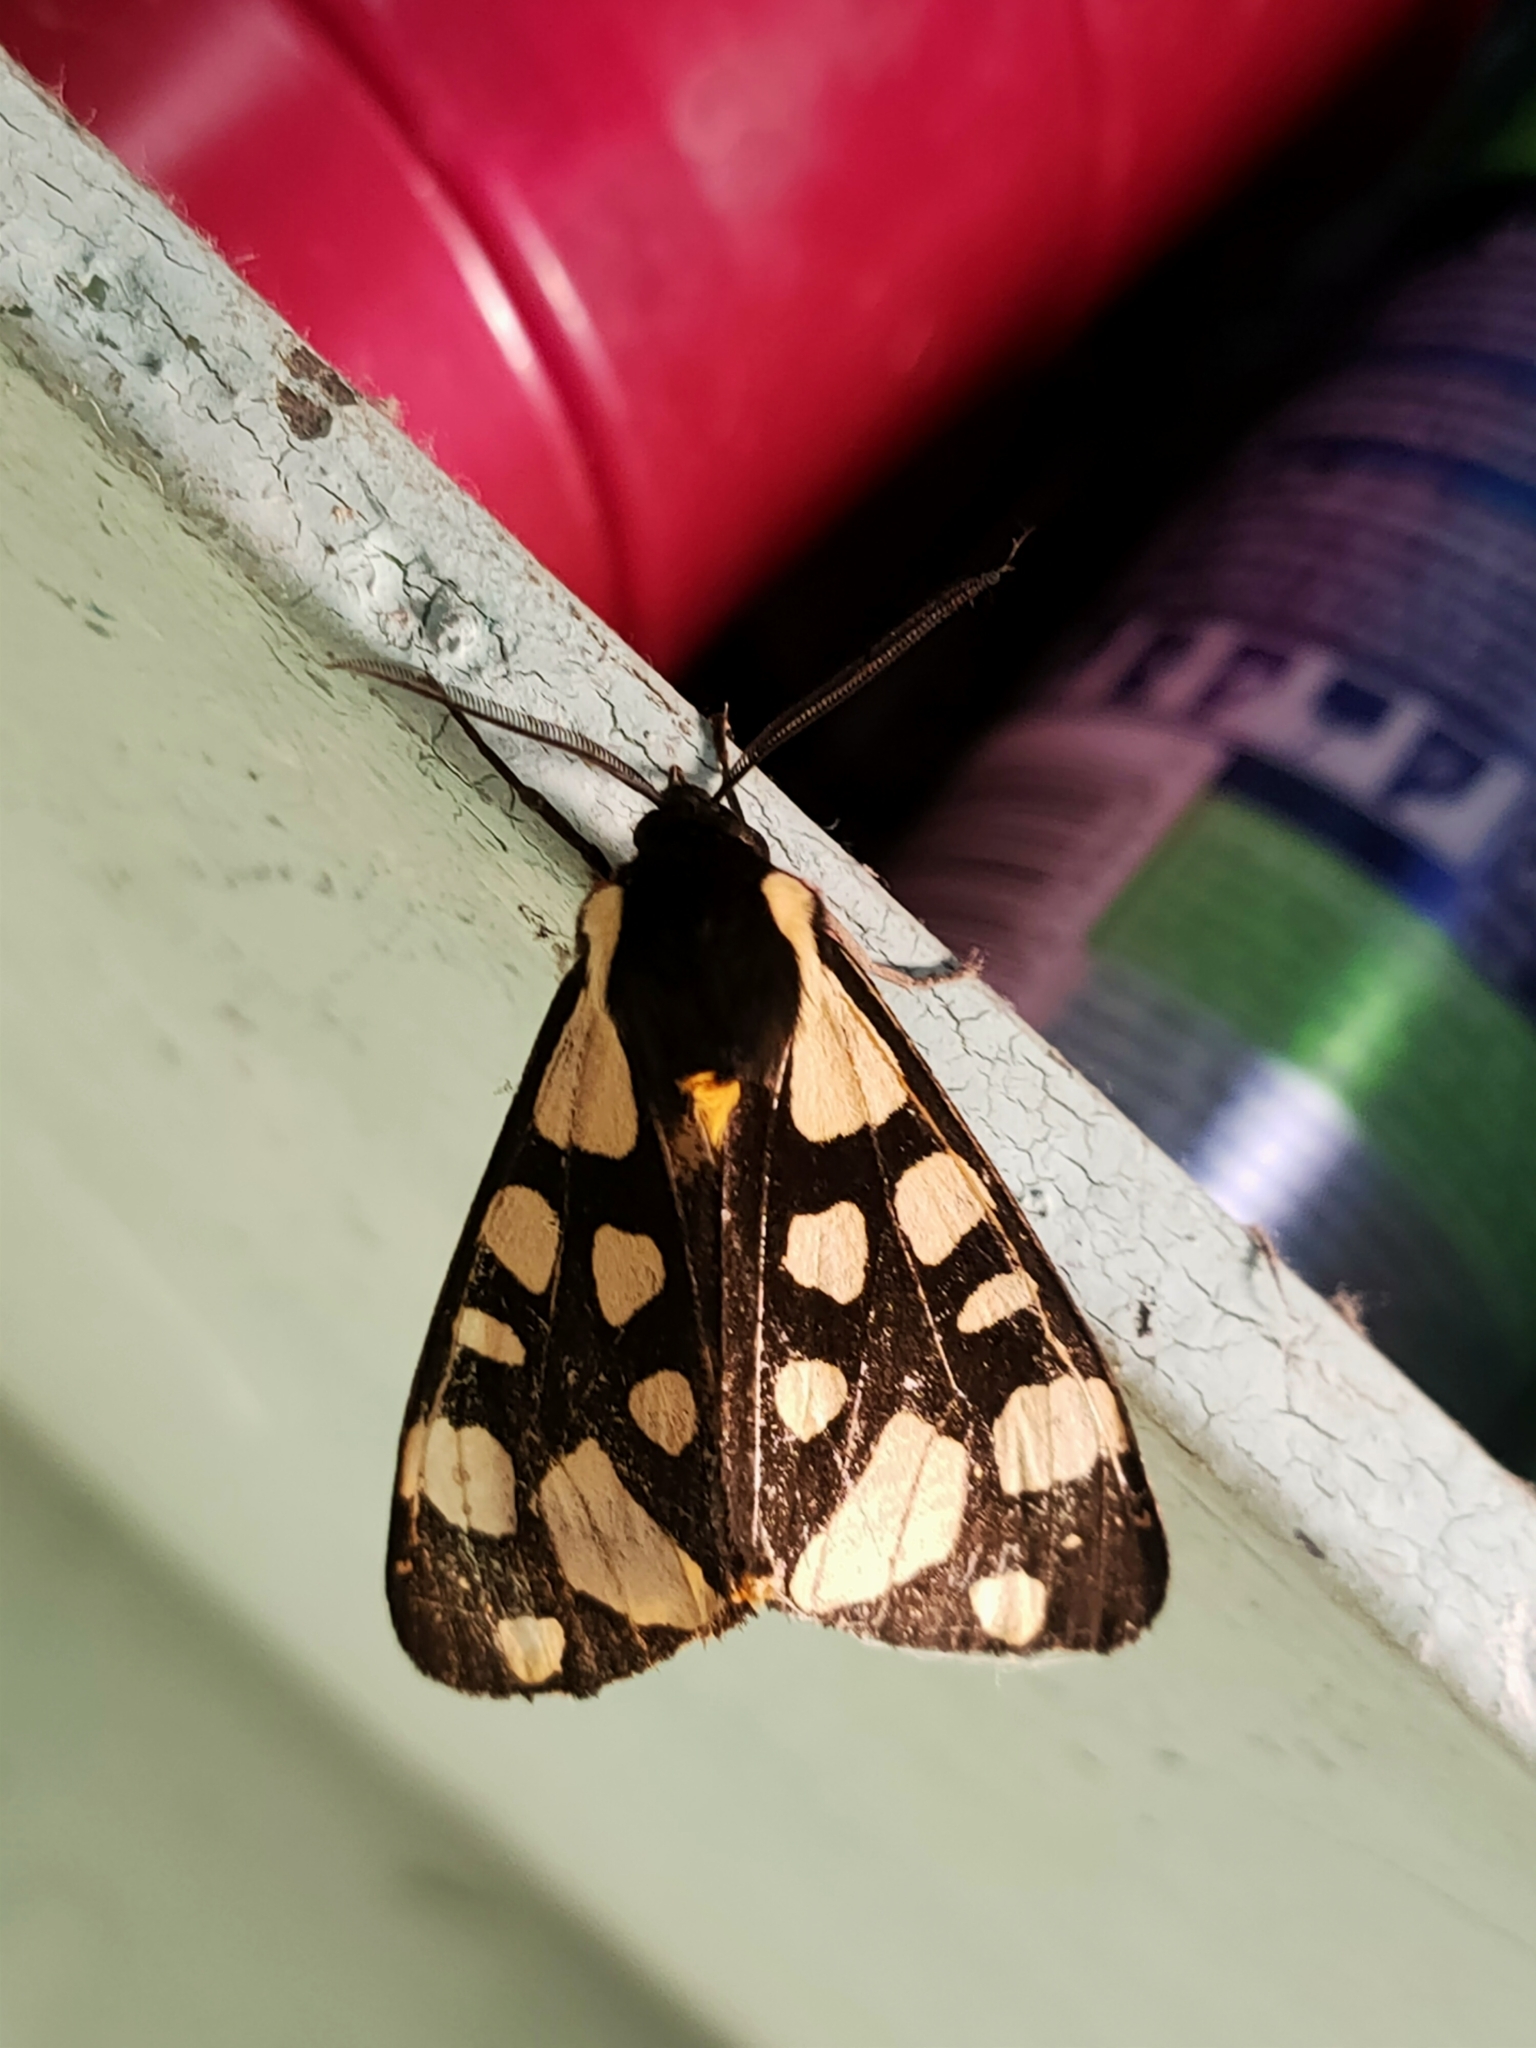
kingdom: Animalia
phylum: Arthropoda
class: Insecta
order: Lepidoptera
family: Erebidae
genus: Epicallia
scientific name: Epicallia villica
